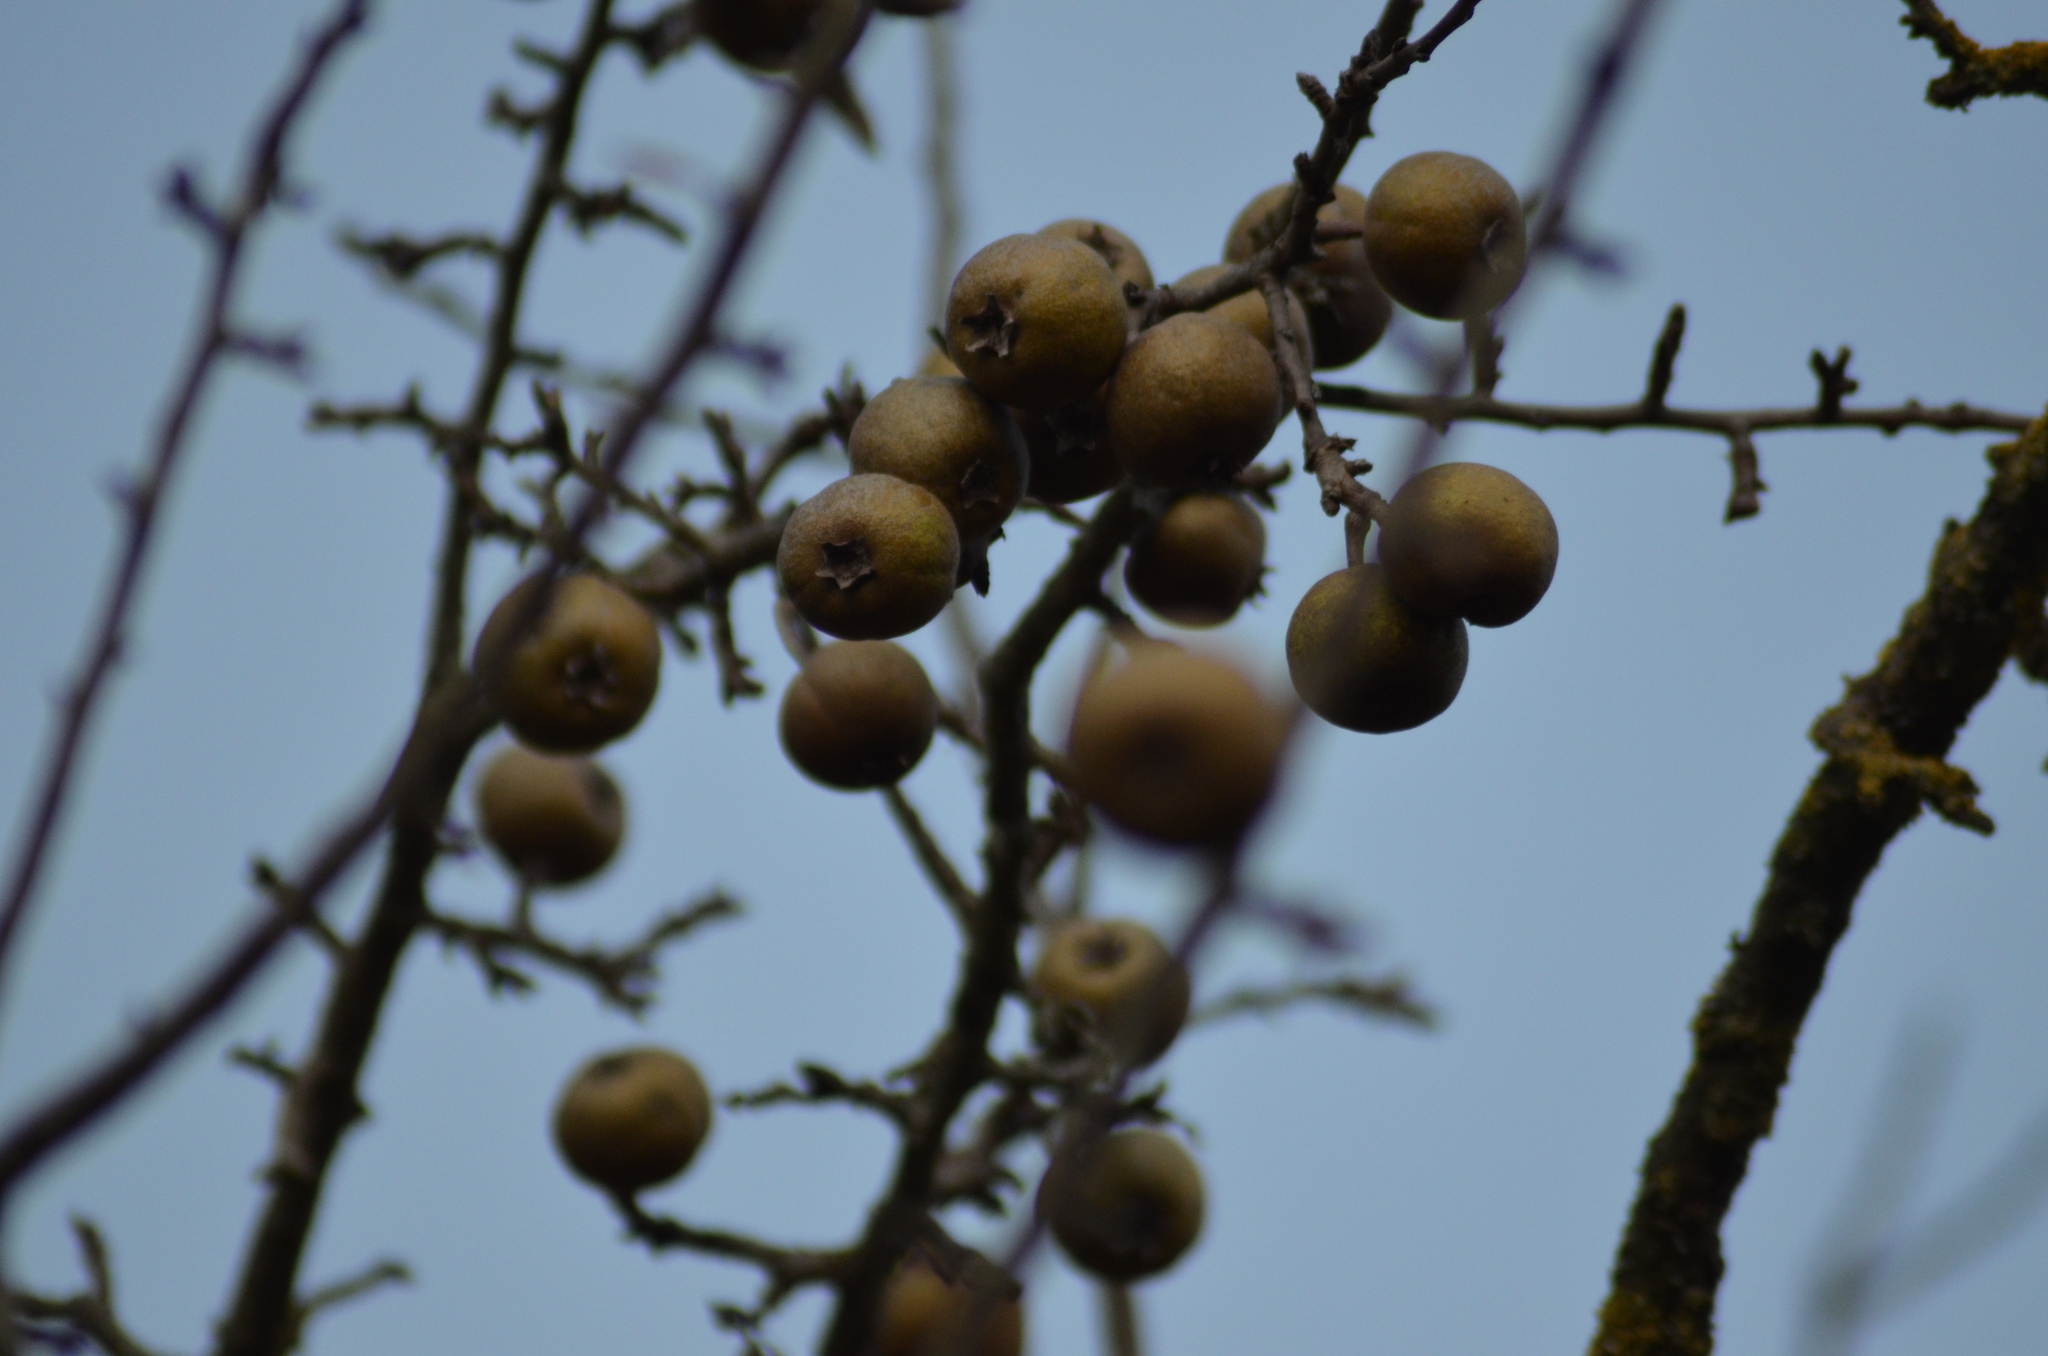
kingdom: Plantae
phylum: Tracheophyta
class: Magnoliopsida
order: Rosales
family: Rosaceae
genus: Malus
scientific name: Malus sylvestris
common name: Crab apple
